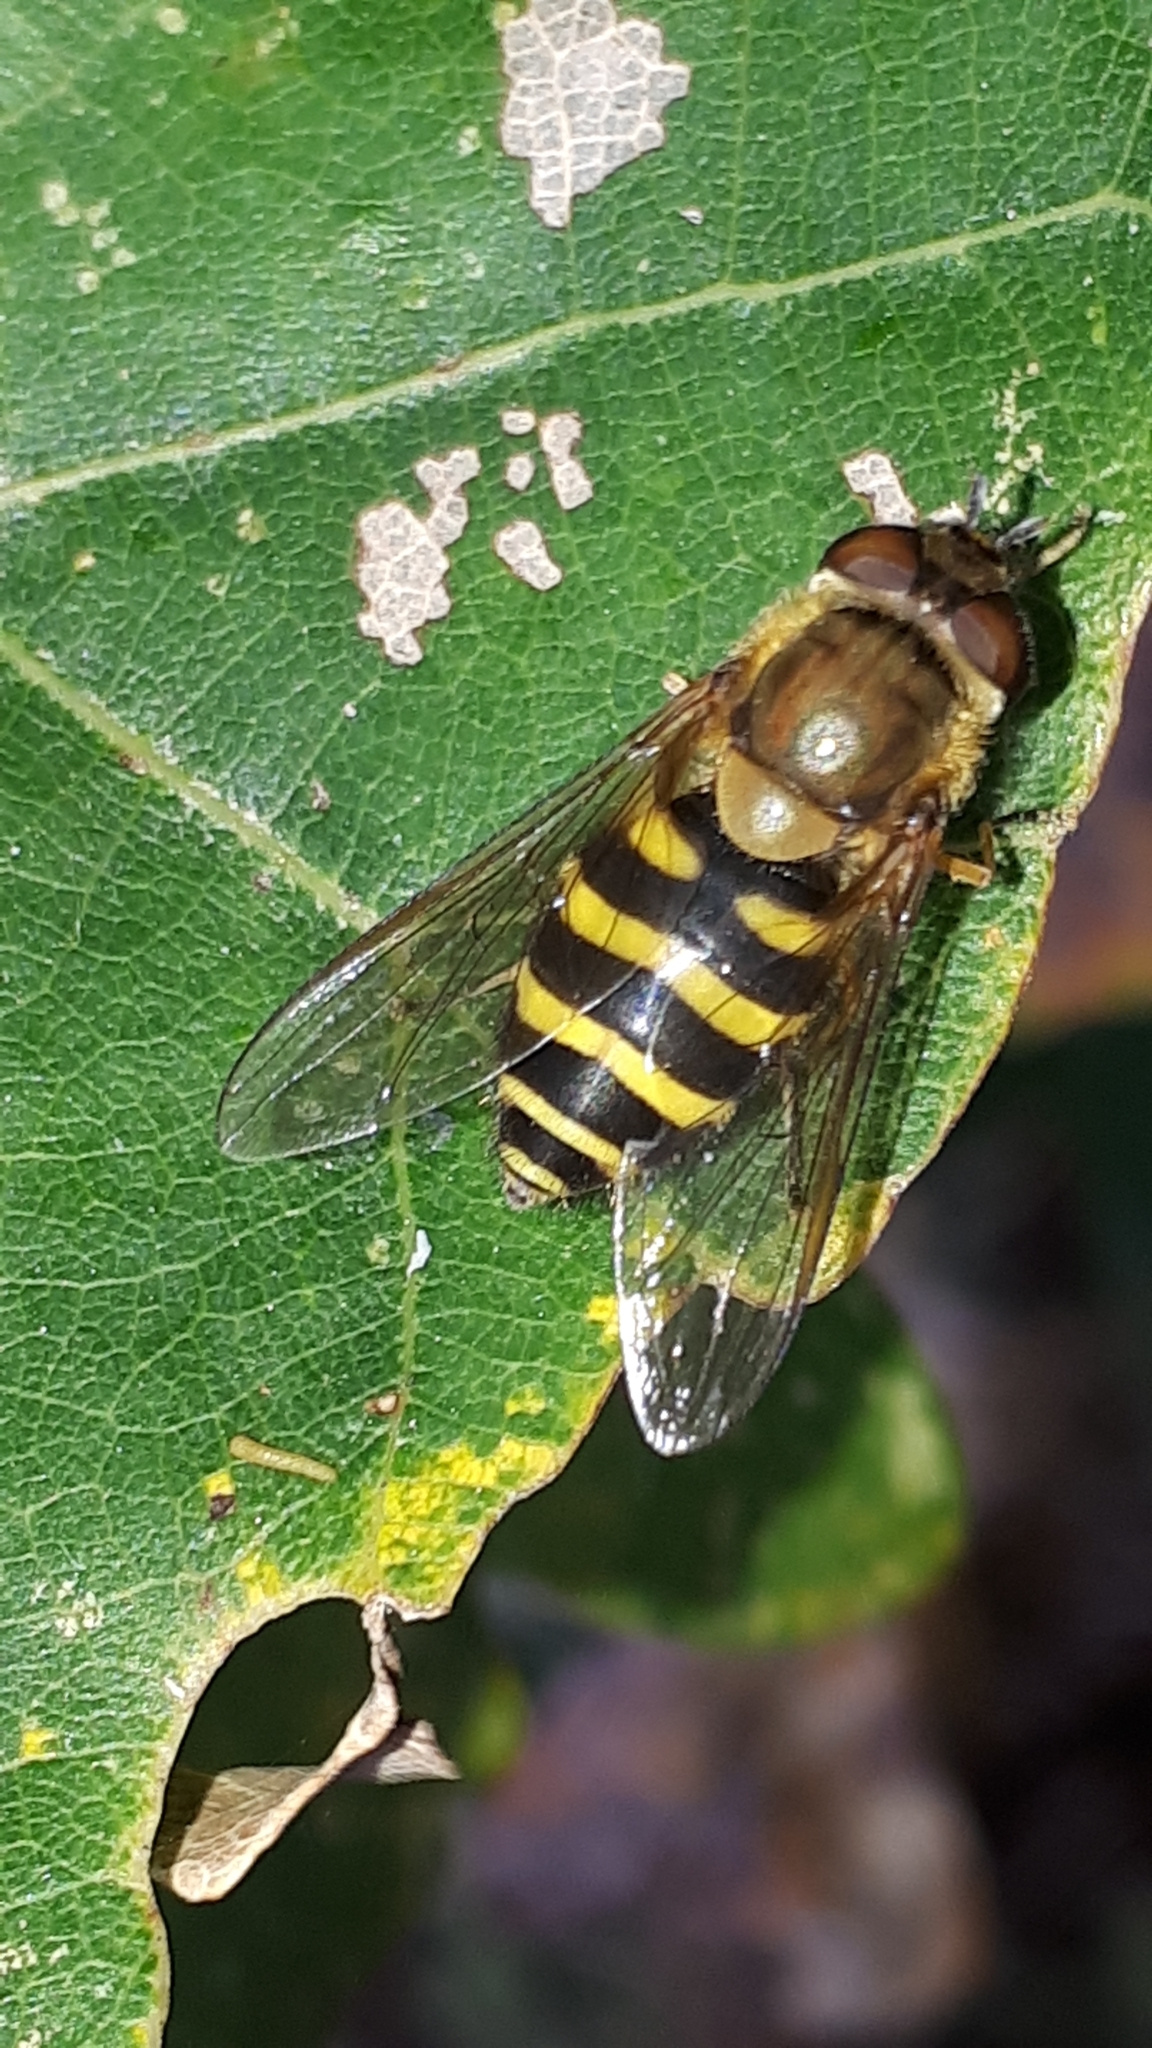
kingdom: Animalia
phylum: Arthropoda
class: Insecta
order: Diptera
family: Syrphidae
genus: Syrphus
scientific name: Syrphus torvus
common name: Hairy-eyed flower fly
